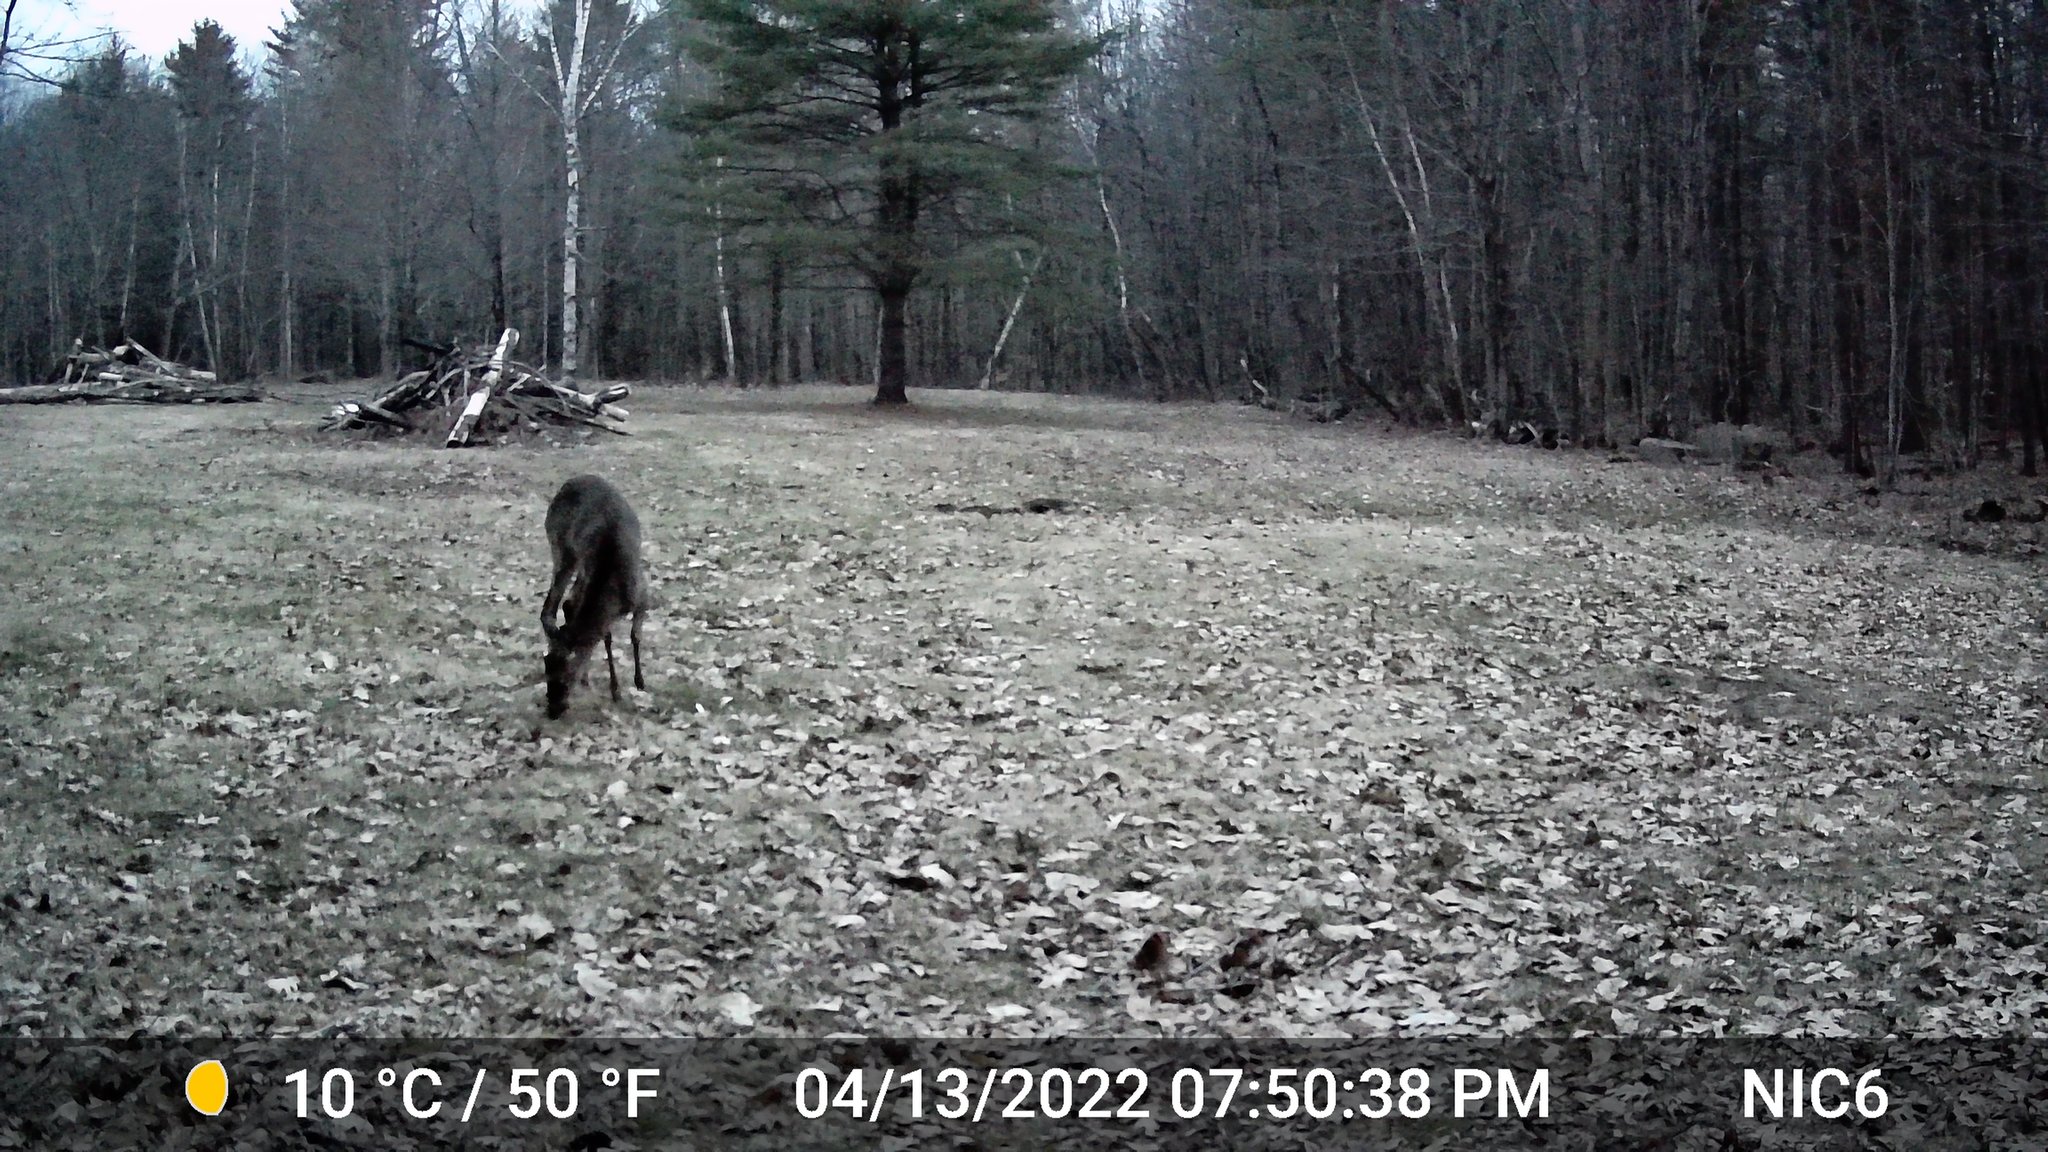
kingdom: Animalia
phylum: Chordata
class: Mammalia
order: Artiodactyla
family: Cervidae
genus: Odocoileus
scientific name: Odocoileus virginianus
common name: White-tailed deer
